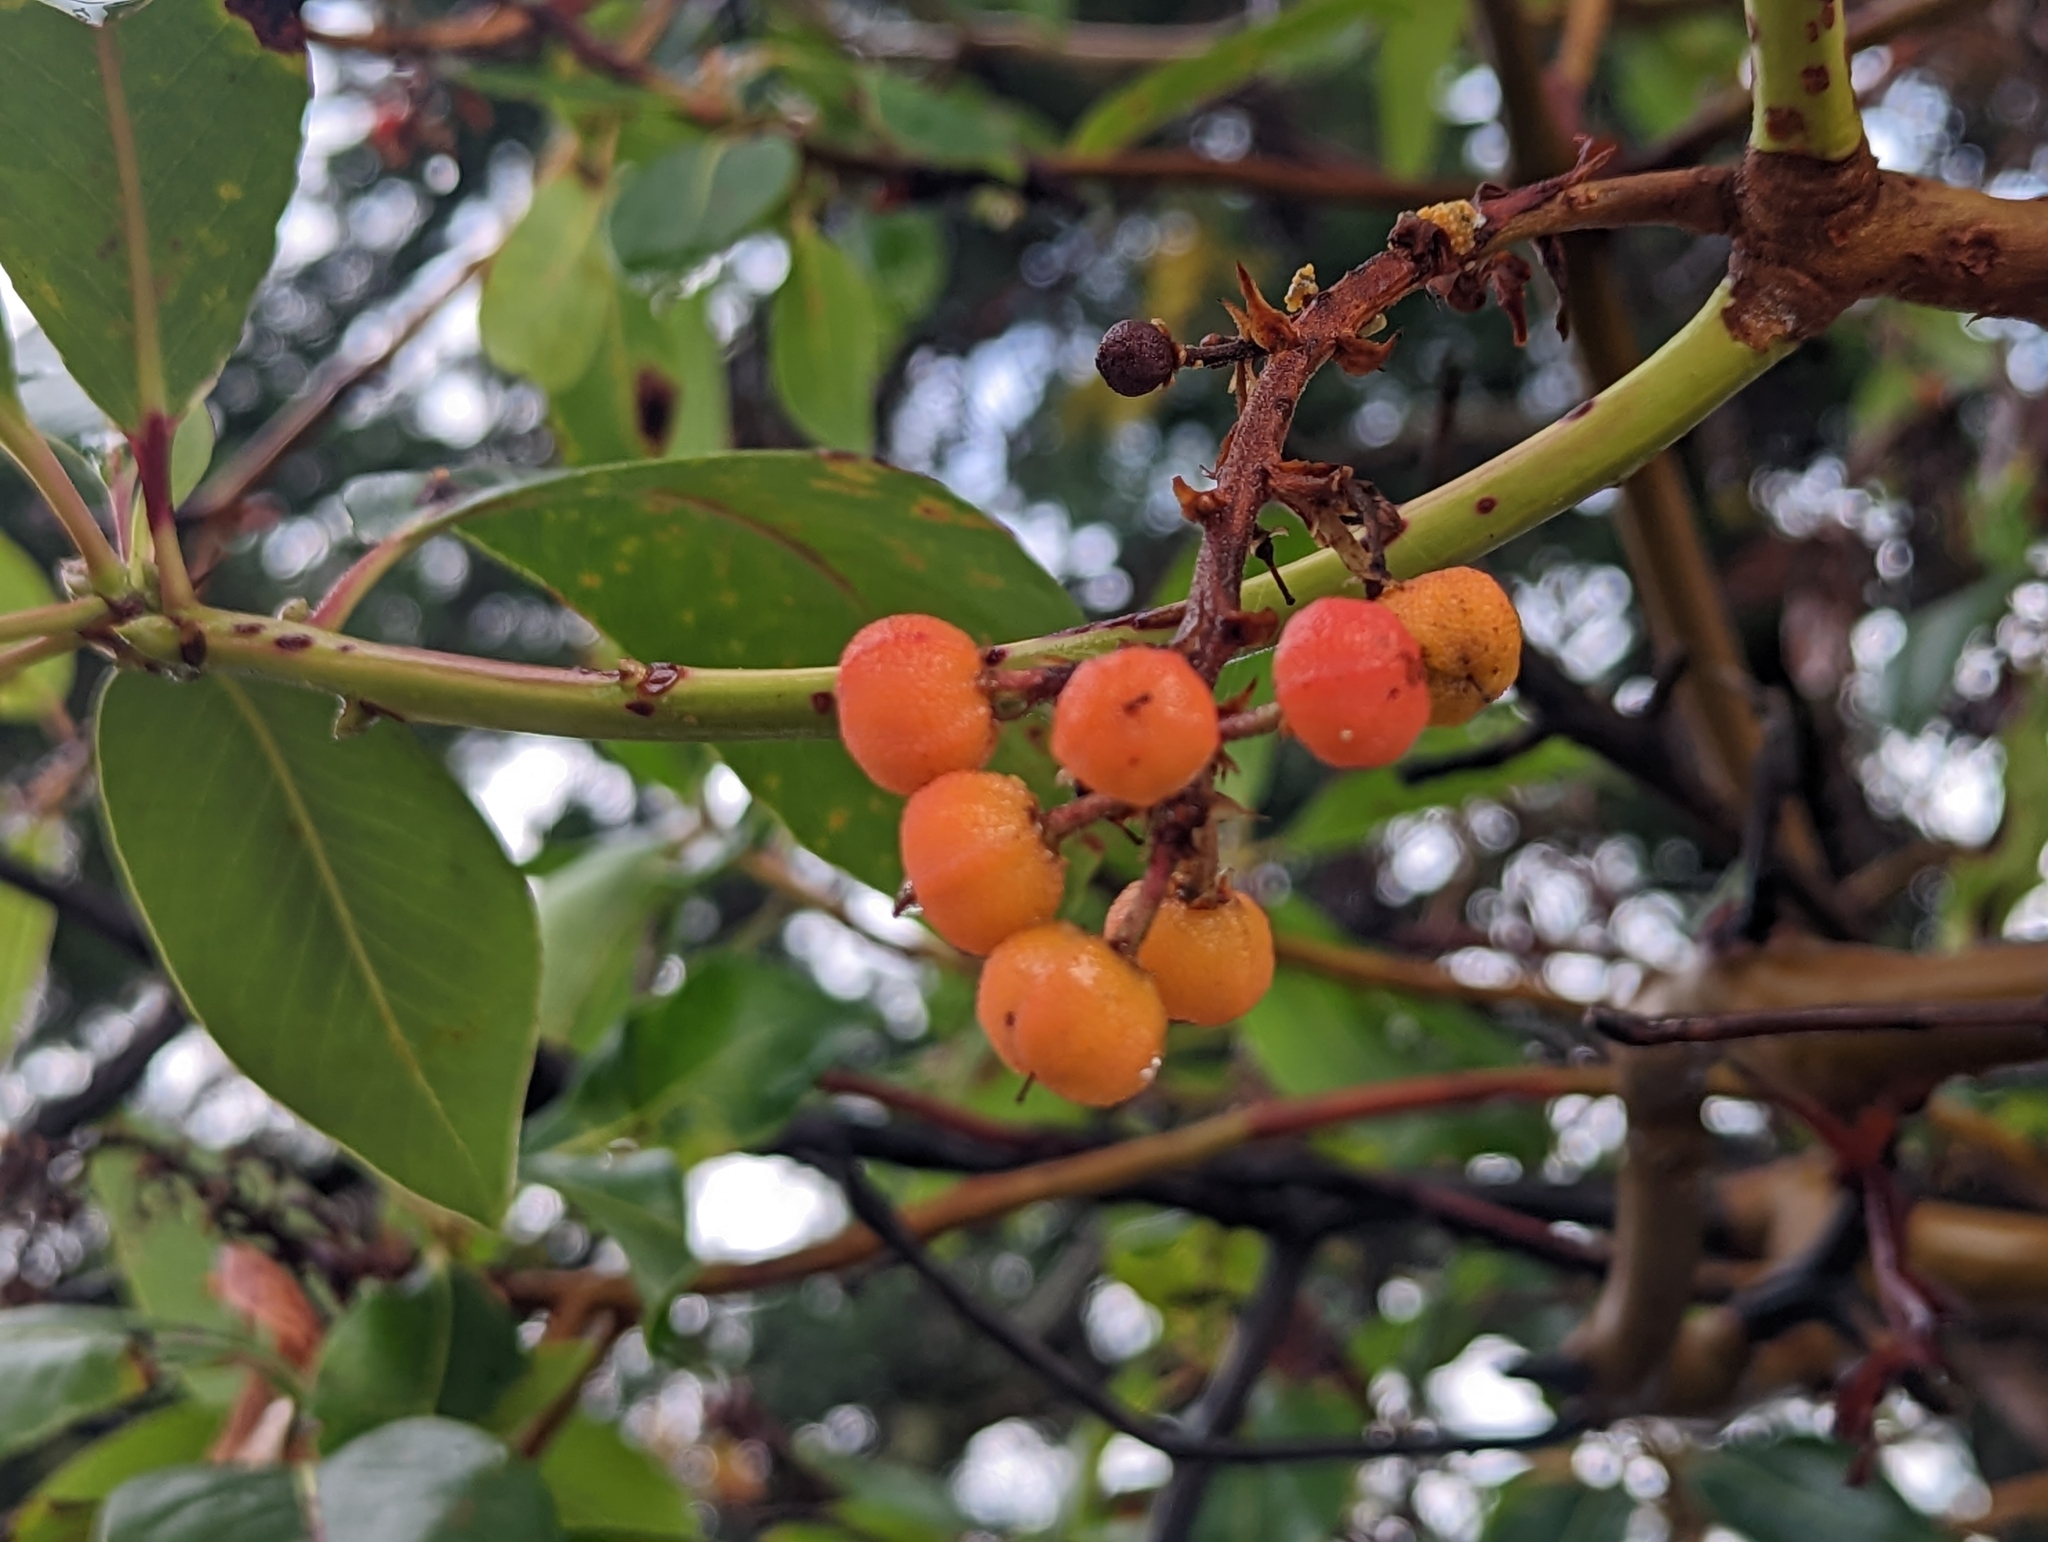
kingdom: Plantae
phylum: Tracheophyta
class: Magnoliopsida
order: Ericales
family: Ericaceae
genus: Arbutus
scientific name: Arbutus menziesii
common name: Pacific madrone
